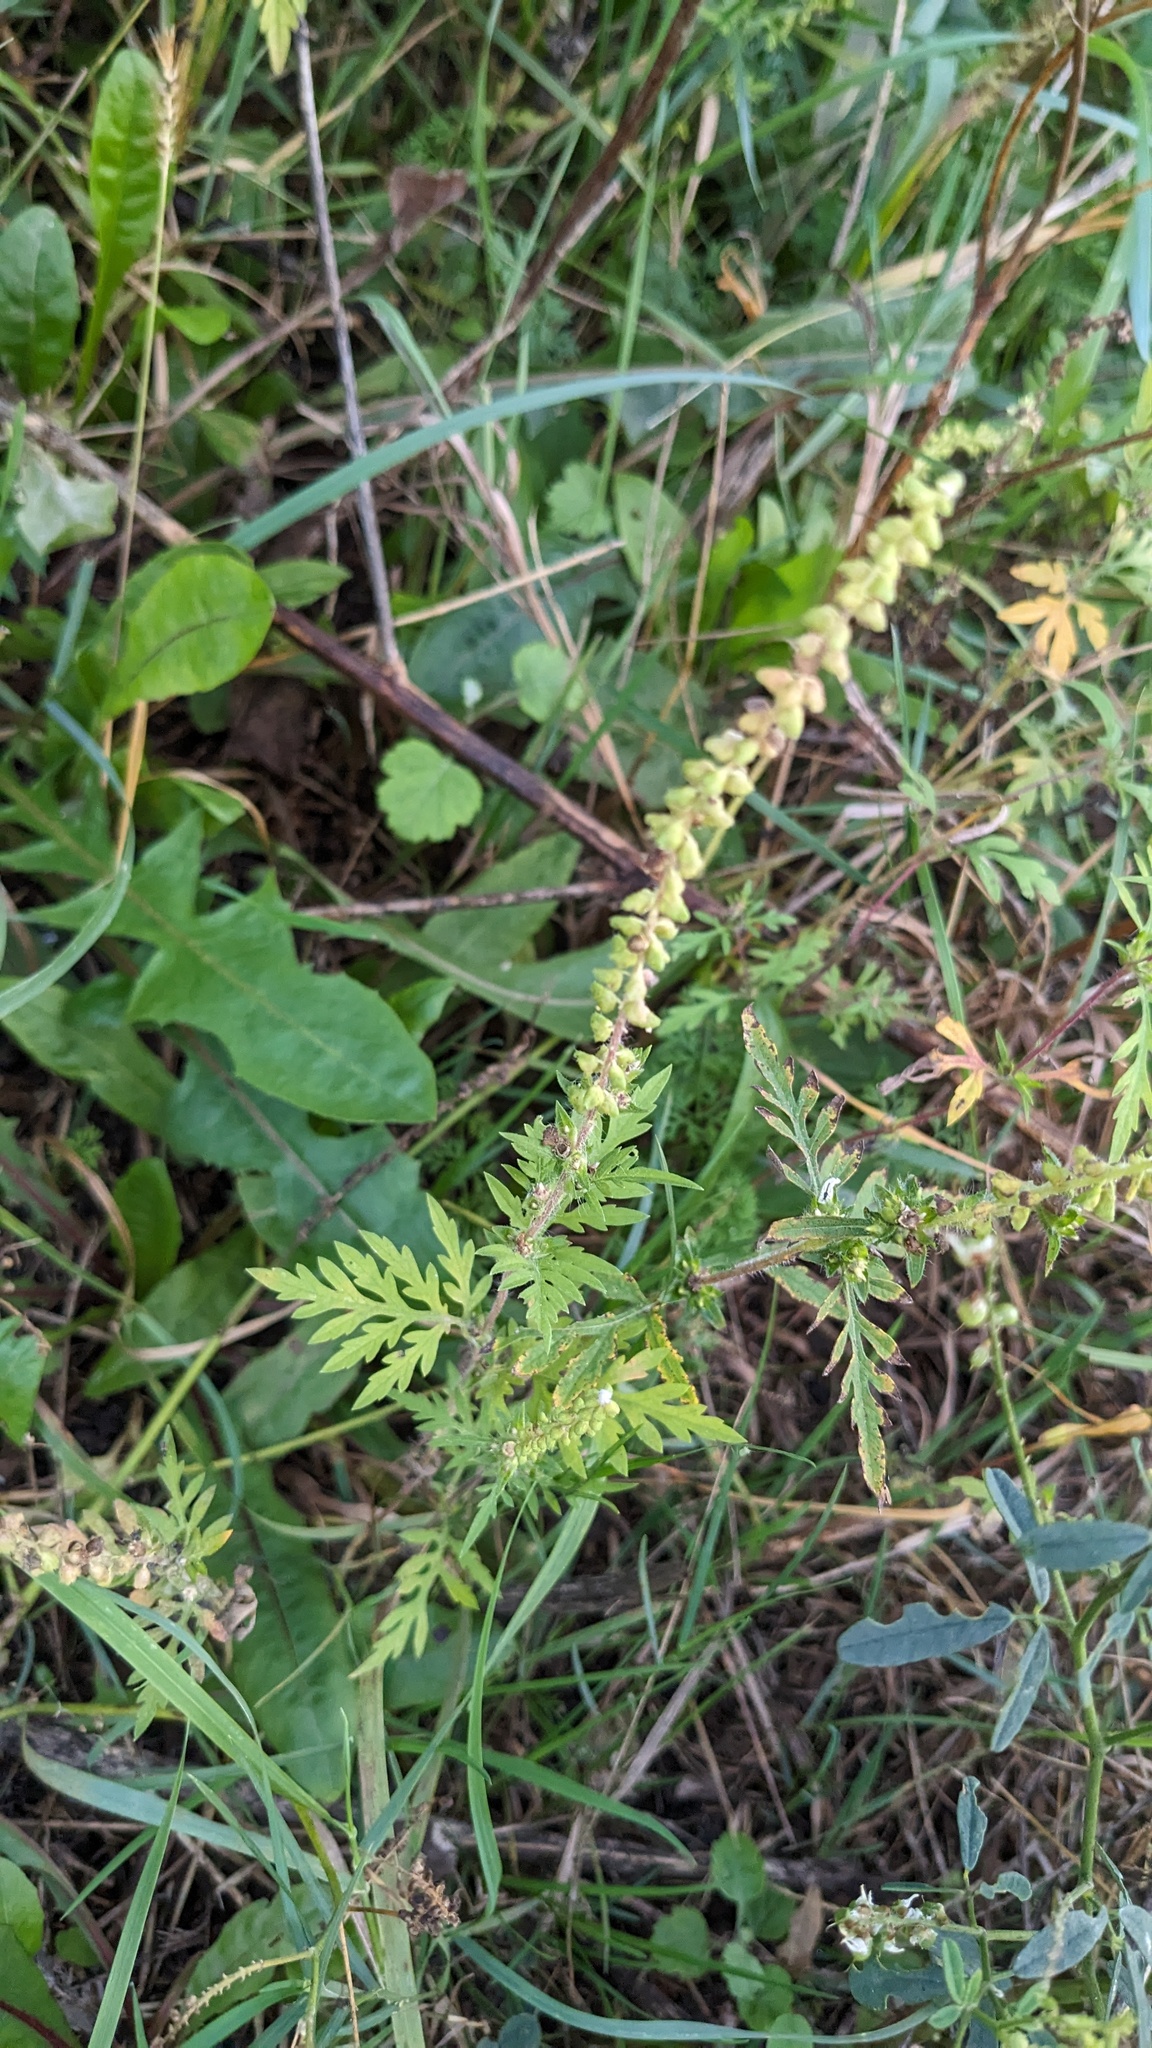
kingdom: Plantae
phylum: Tracheophyta
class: Magnoliopsida
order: Asterales
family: Asteraceae
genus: Ambrosia
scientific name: Ambrosia artemisiifolia
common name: Annual ragweed
